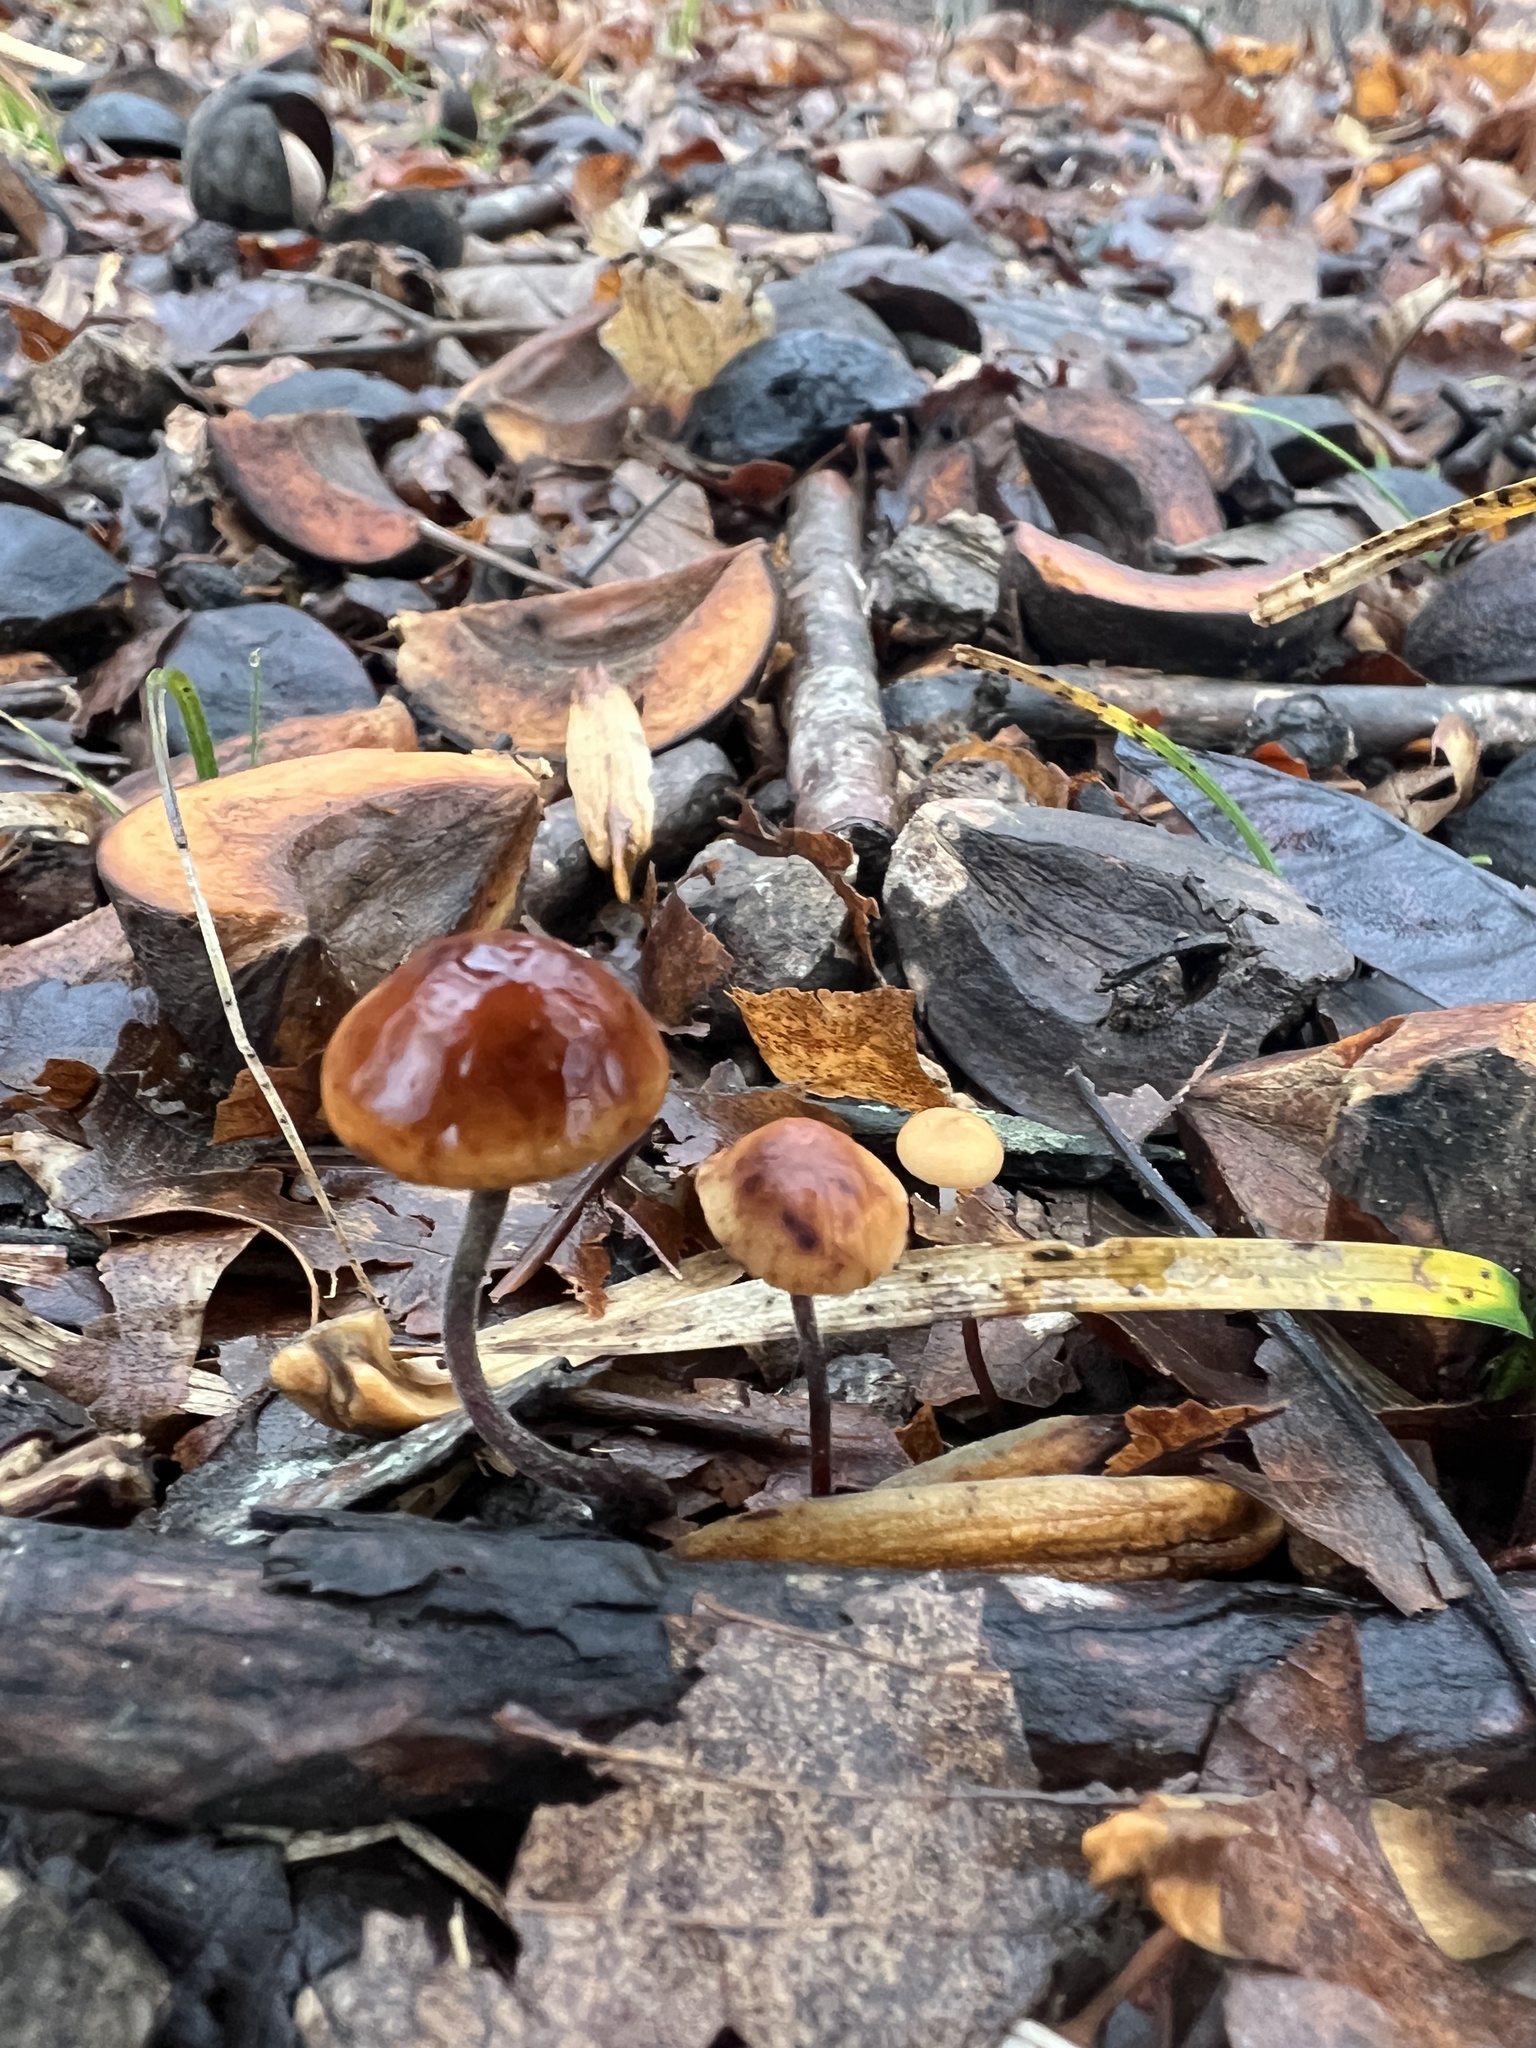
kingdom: Fungi
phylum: Basidiomycota
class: Agaricomycetes
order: Agaricales
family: Physalacriaceae
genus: Rhizomarasmius
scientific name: Rhizomarasmius pyrrhocephalus
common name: Hairy long stem marasmius
